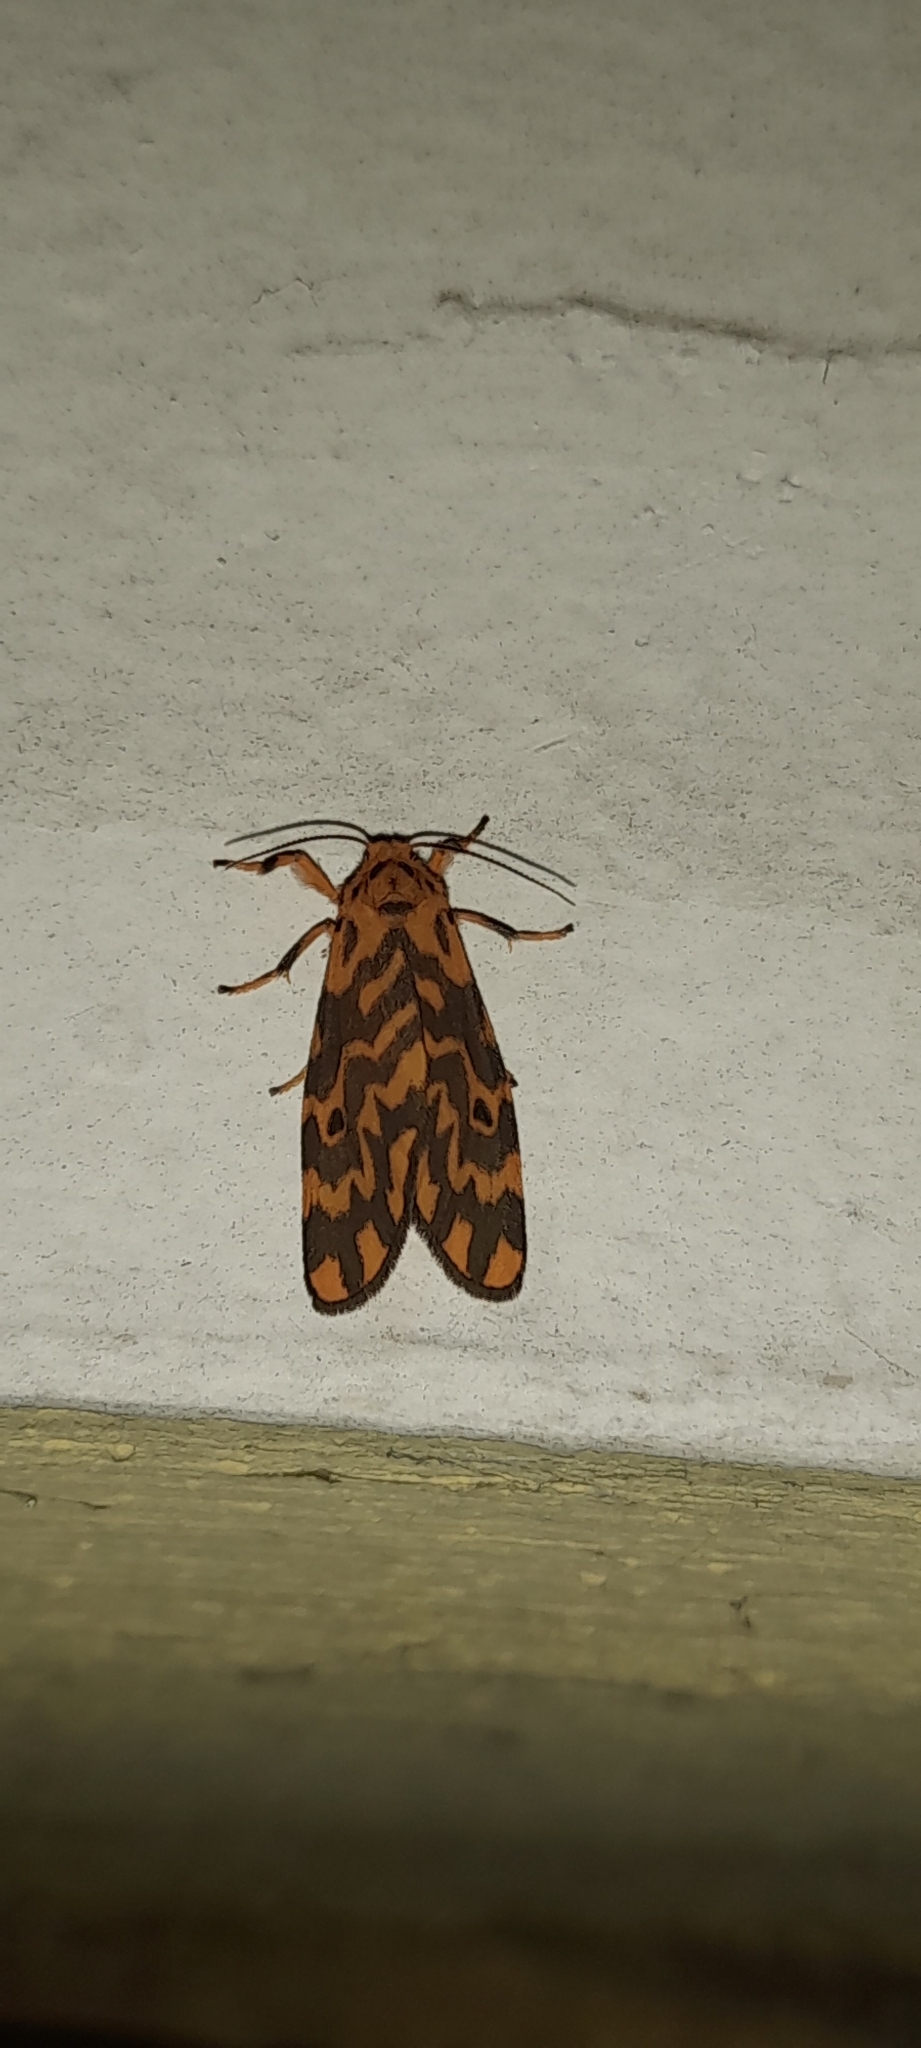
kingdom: Animalia
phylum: Arthropoda
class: Insecta
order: Lepidoptera
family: Erebidae
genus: Nepita
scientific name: Nepita conferta
